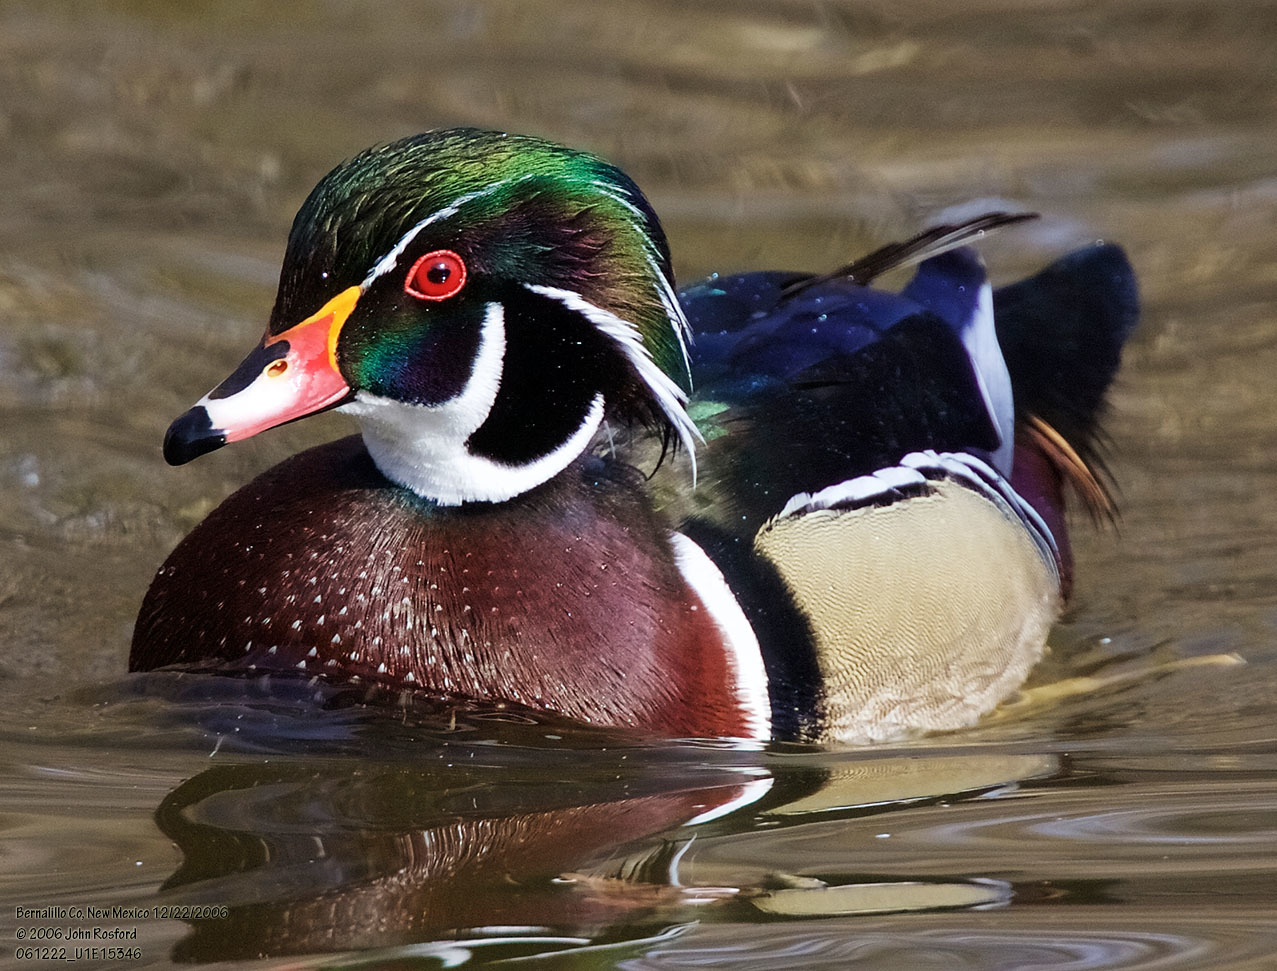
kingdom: Animalia
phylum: Chordata
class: Aves
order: Anseriformes
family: Anatidae
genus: Aix
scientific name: Aix sponsa
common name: Wood duck
